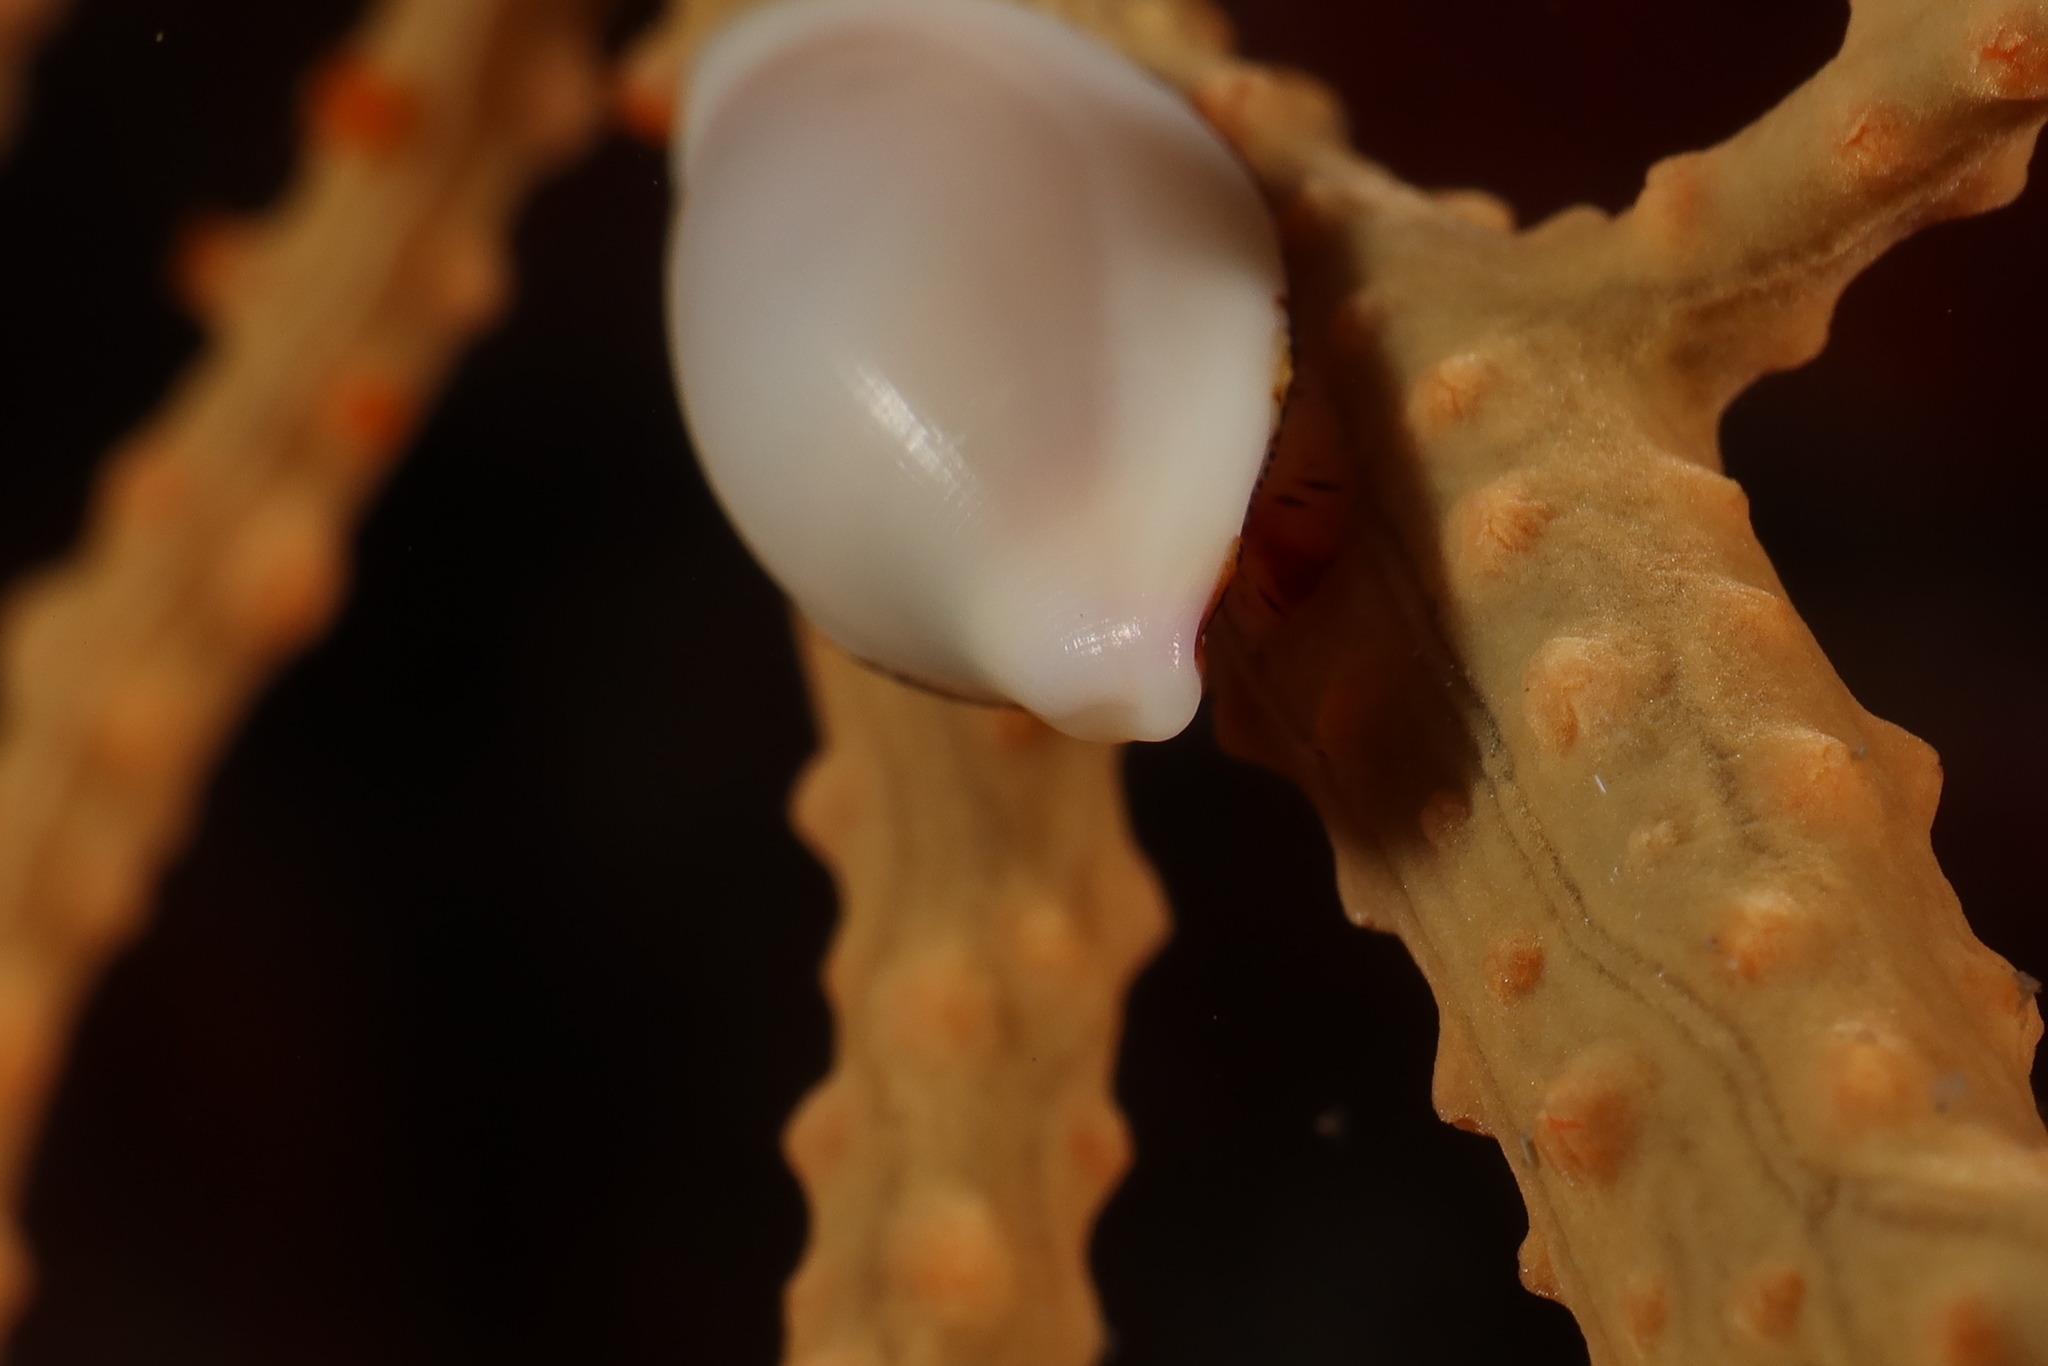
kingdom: Animalia
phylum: Mollusca
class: Gastropoda
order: Littorinimorpha
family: Ovulidae
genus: Simnia
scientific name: Simnia spelta
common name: Mediterranean ovulid
